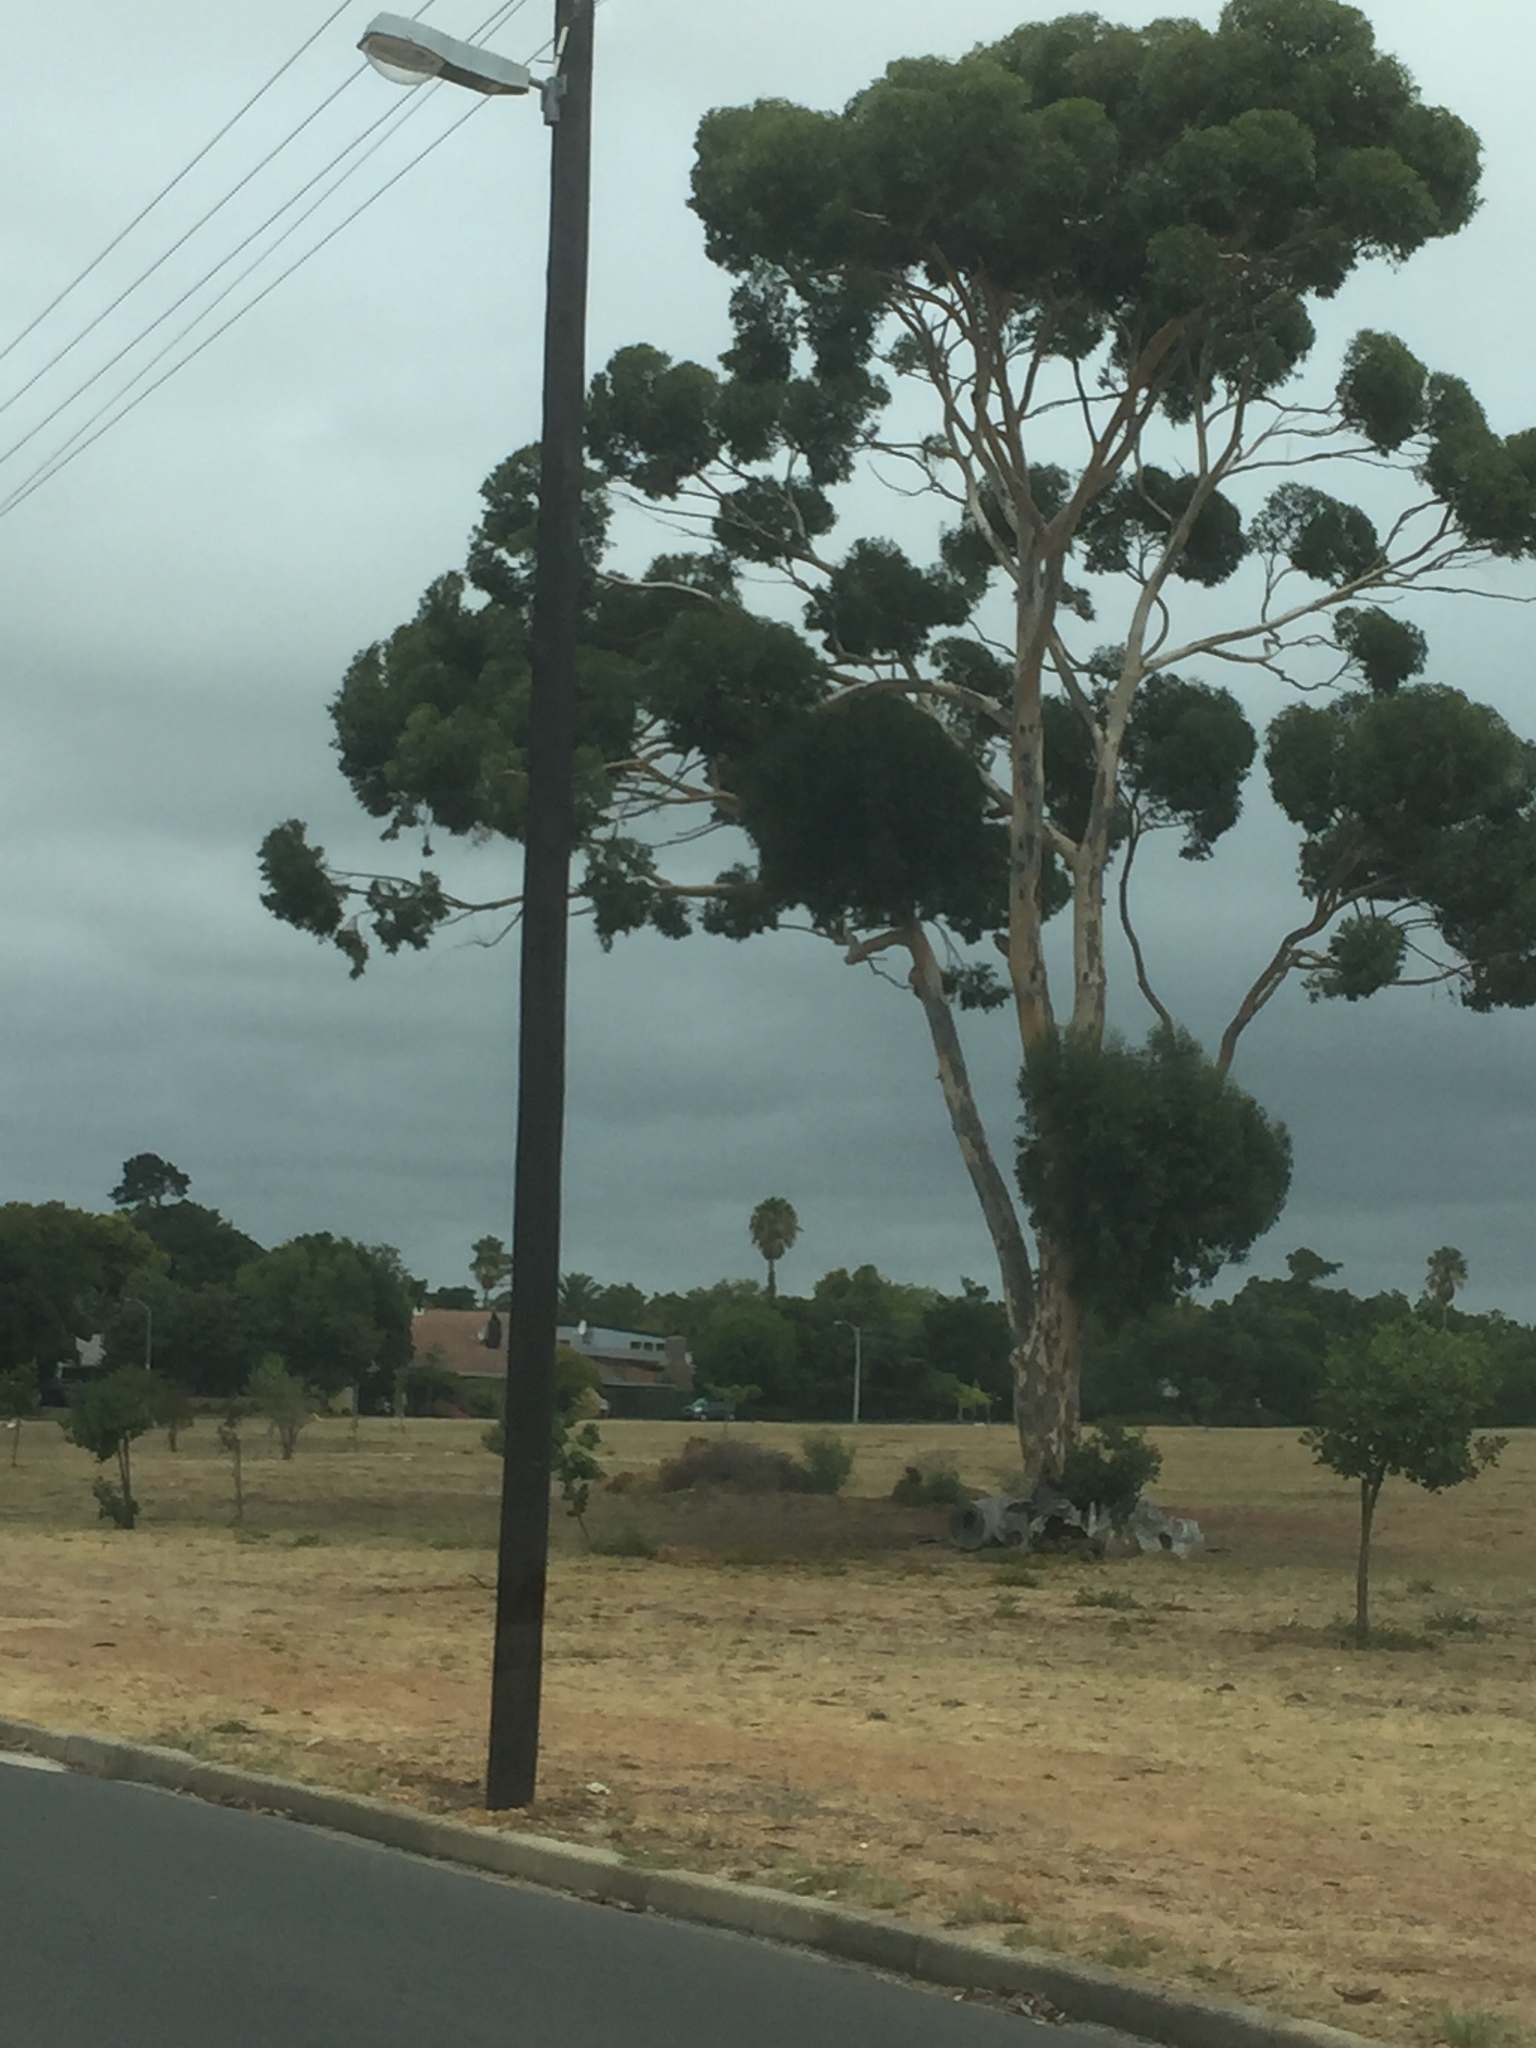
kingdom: Plantae
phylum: Tracheophyta
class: Magnoliopsida
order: Myrtales
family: Myrtaceae
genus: Eucalyptus
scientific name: Eucalyptus cladocalyx
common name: Sugargum
